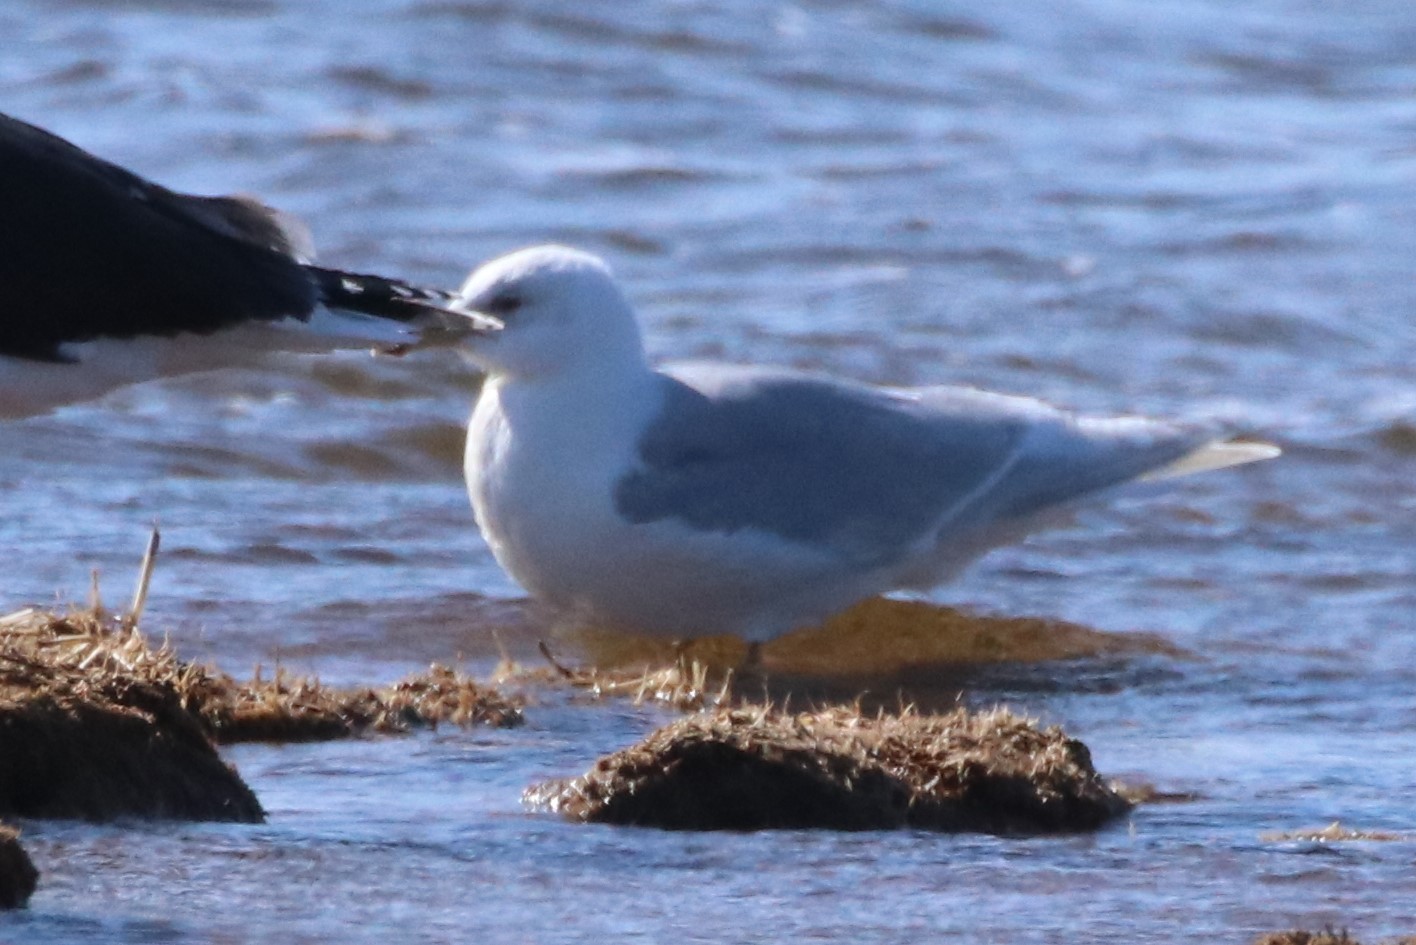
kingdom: Animalia
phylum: Chordata
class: Aves
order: Charadriiformes
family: Laridae
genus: Larus
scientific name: Larus glaucoides
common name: Iceland gull
